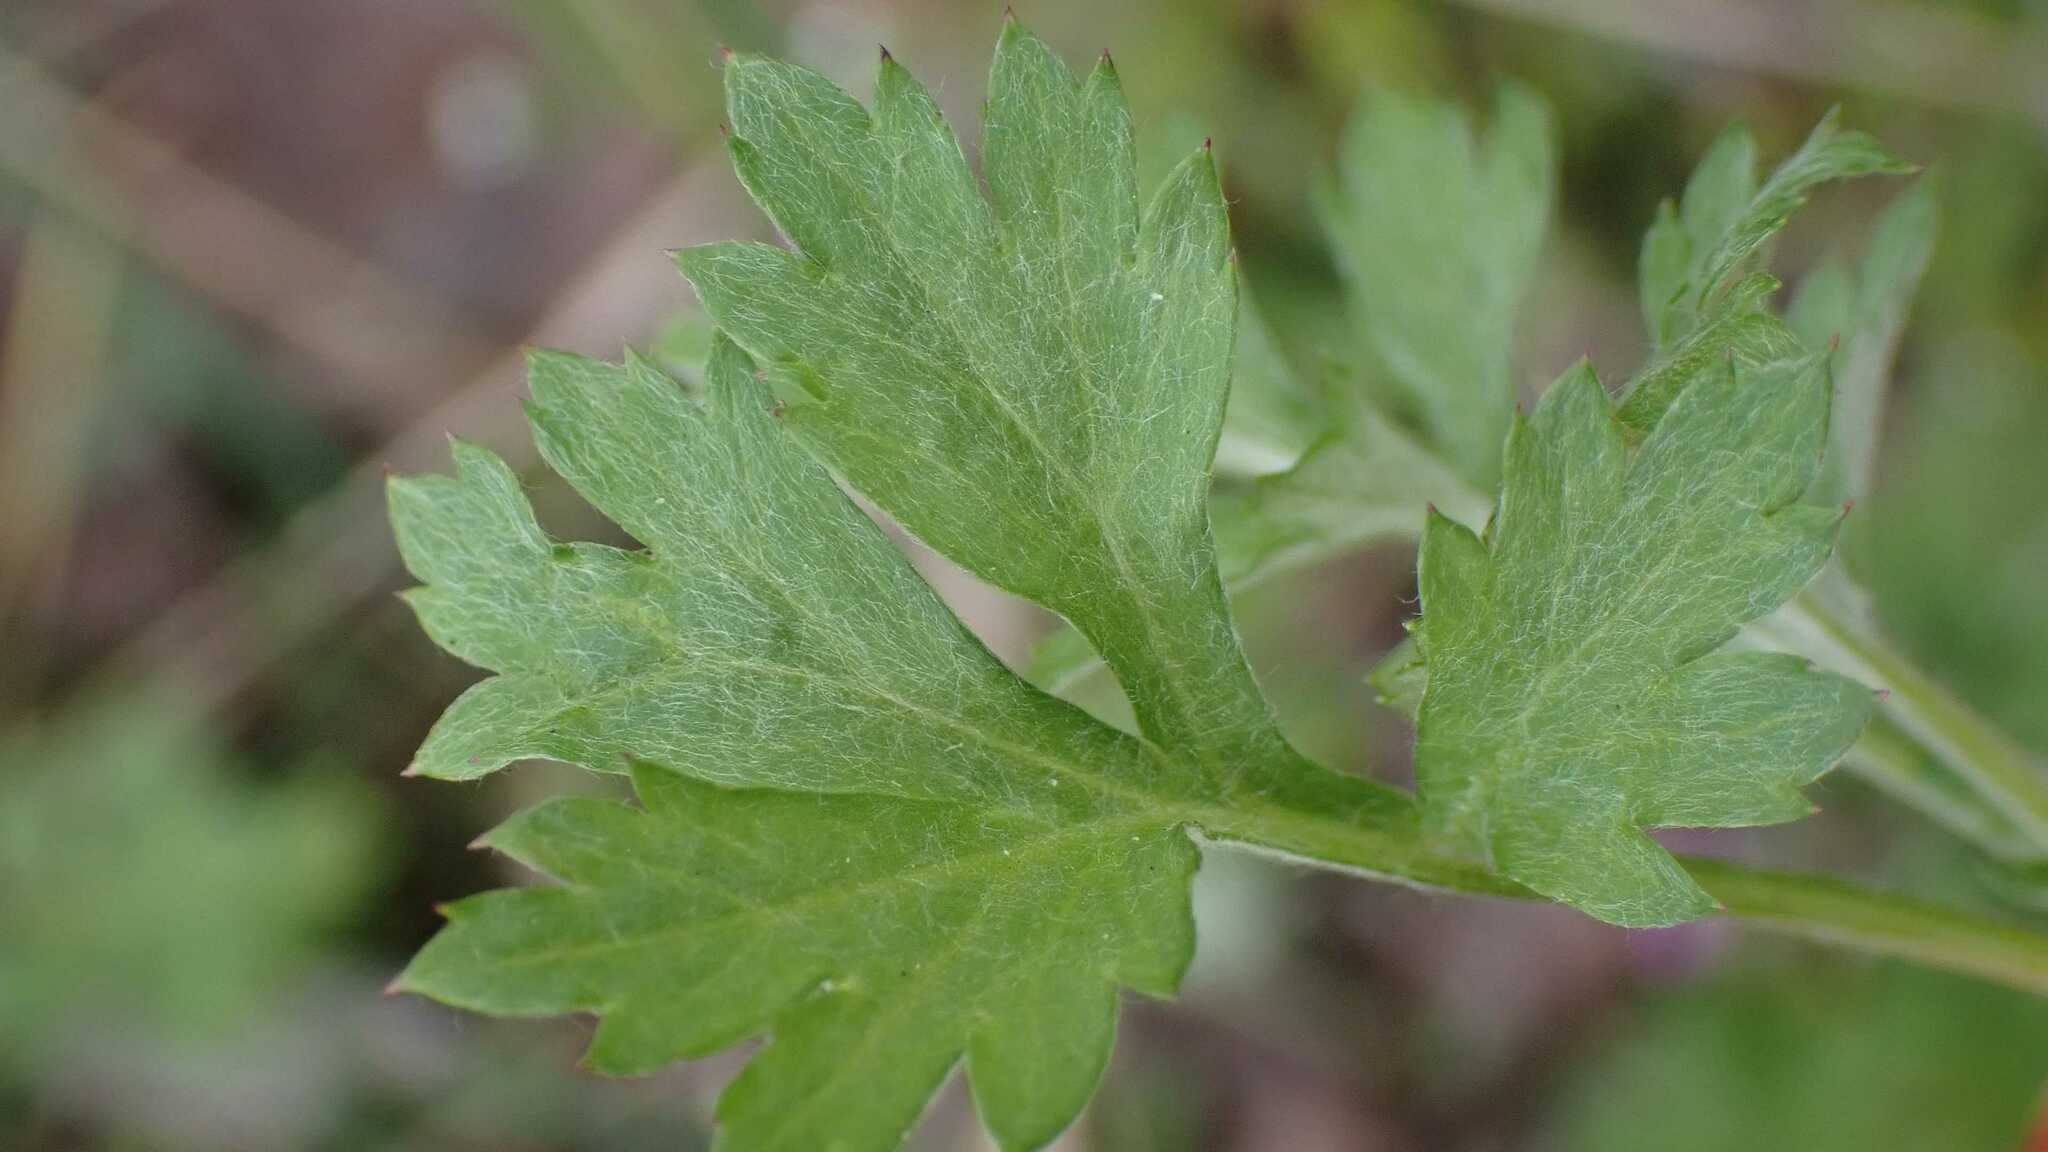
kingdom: Plantae
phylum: Tracheophyta
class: Magnoliopsida
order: Asterales
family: Asteraceae
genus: Artemisia
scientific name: Artemisia vulgaris
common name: Mugwort
